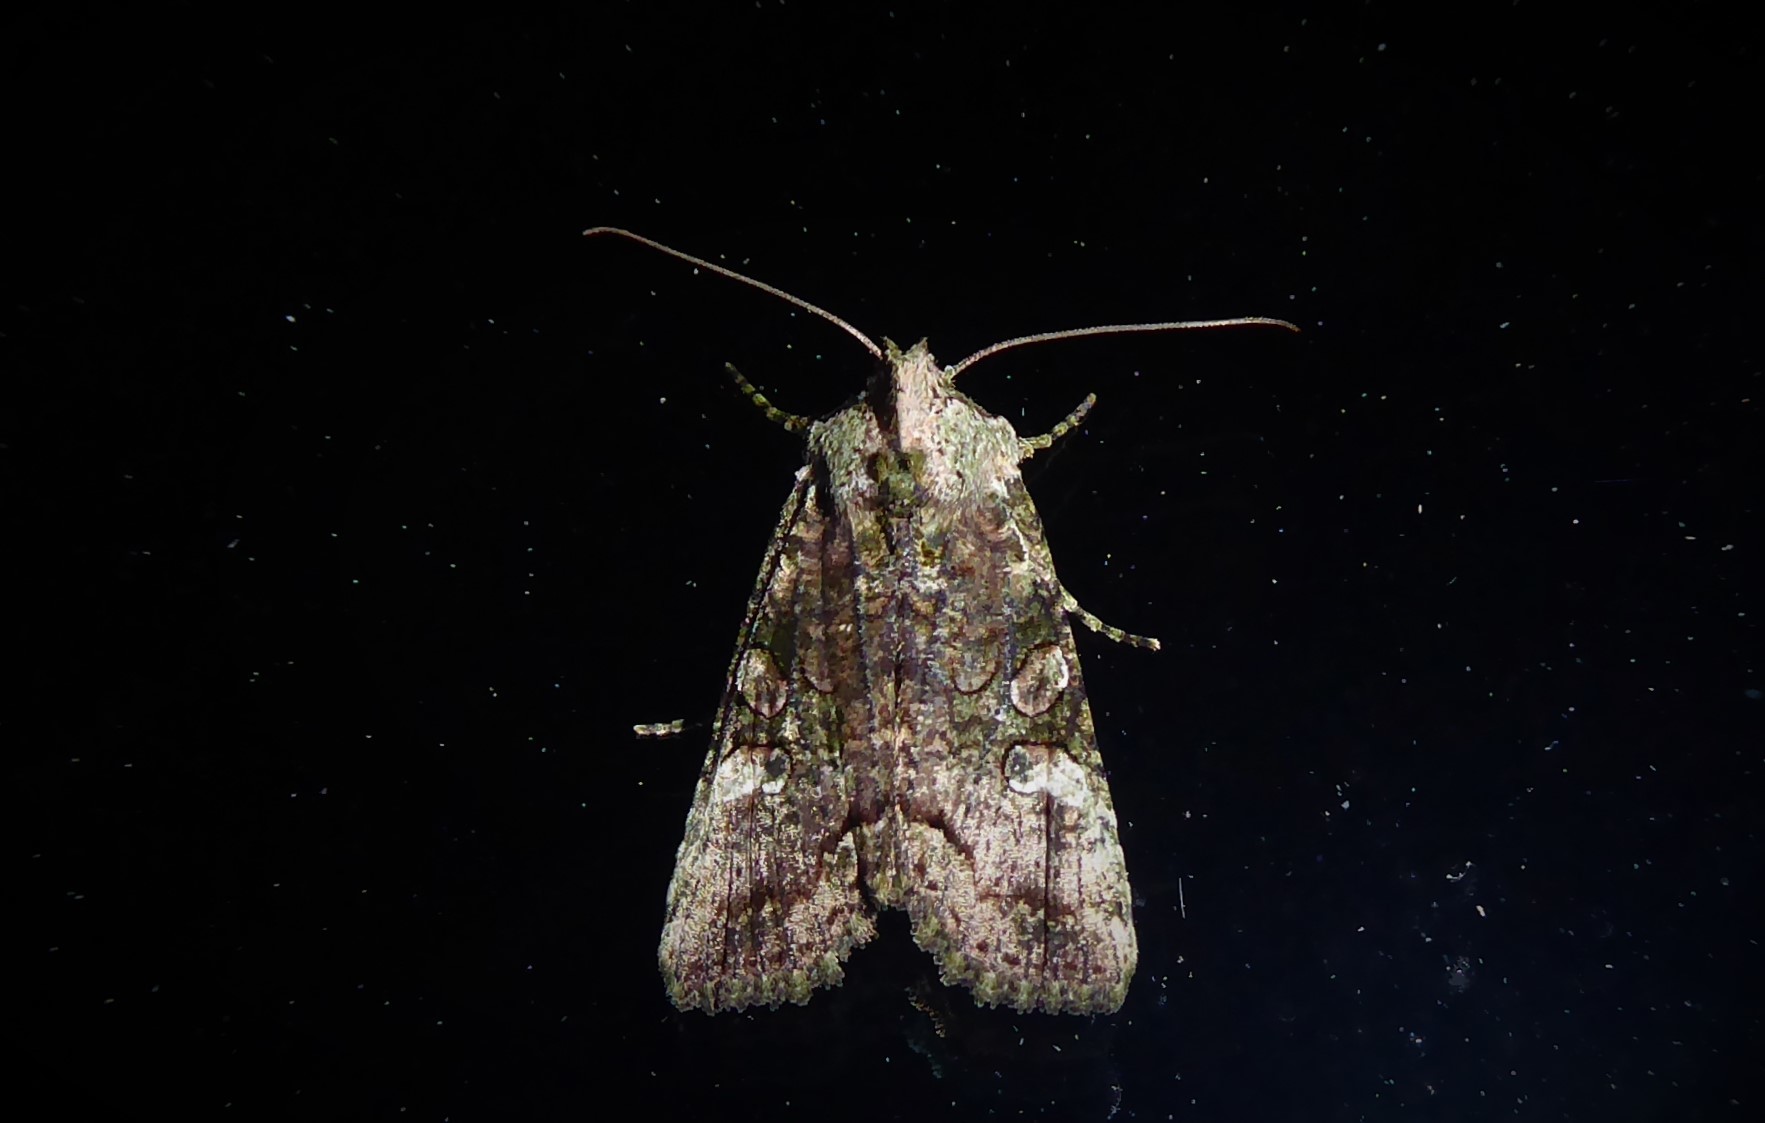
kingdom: Animalia
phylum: Arthropoda
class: Insecta
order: Lepidoptera
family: Noctuidae
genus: Meterana
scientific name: Meterana levis
